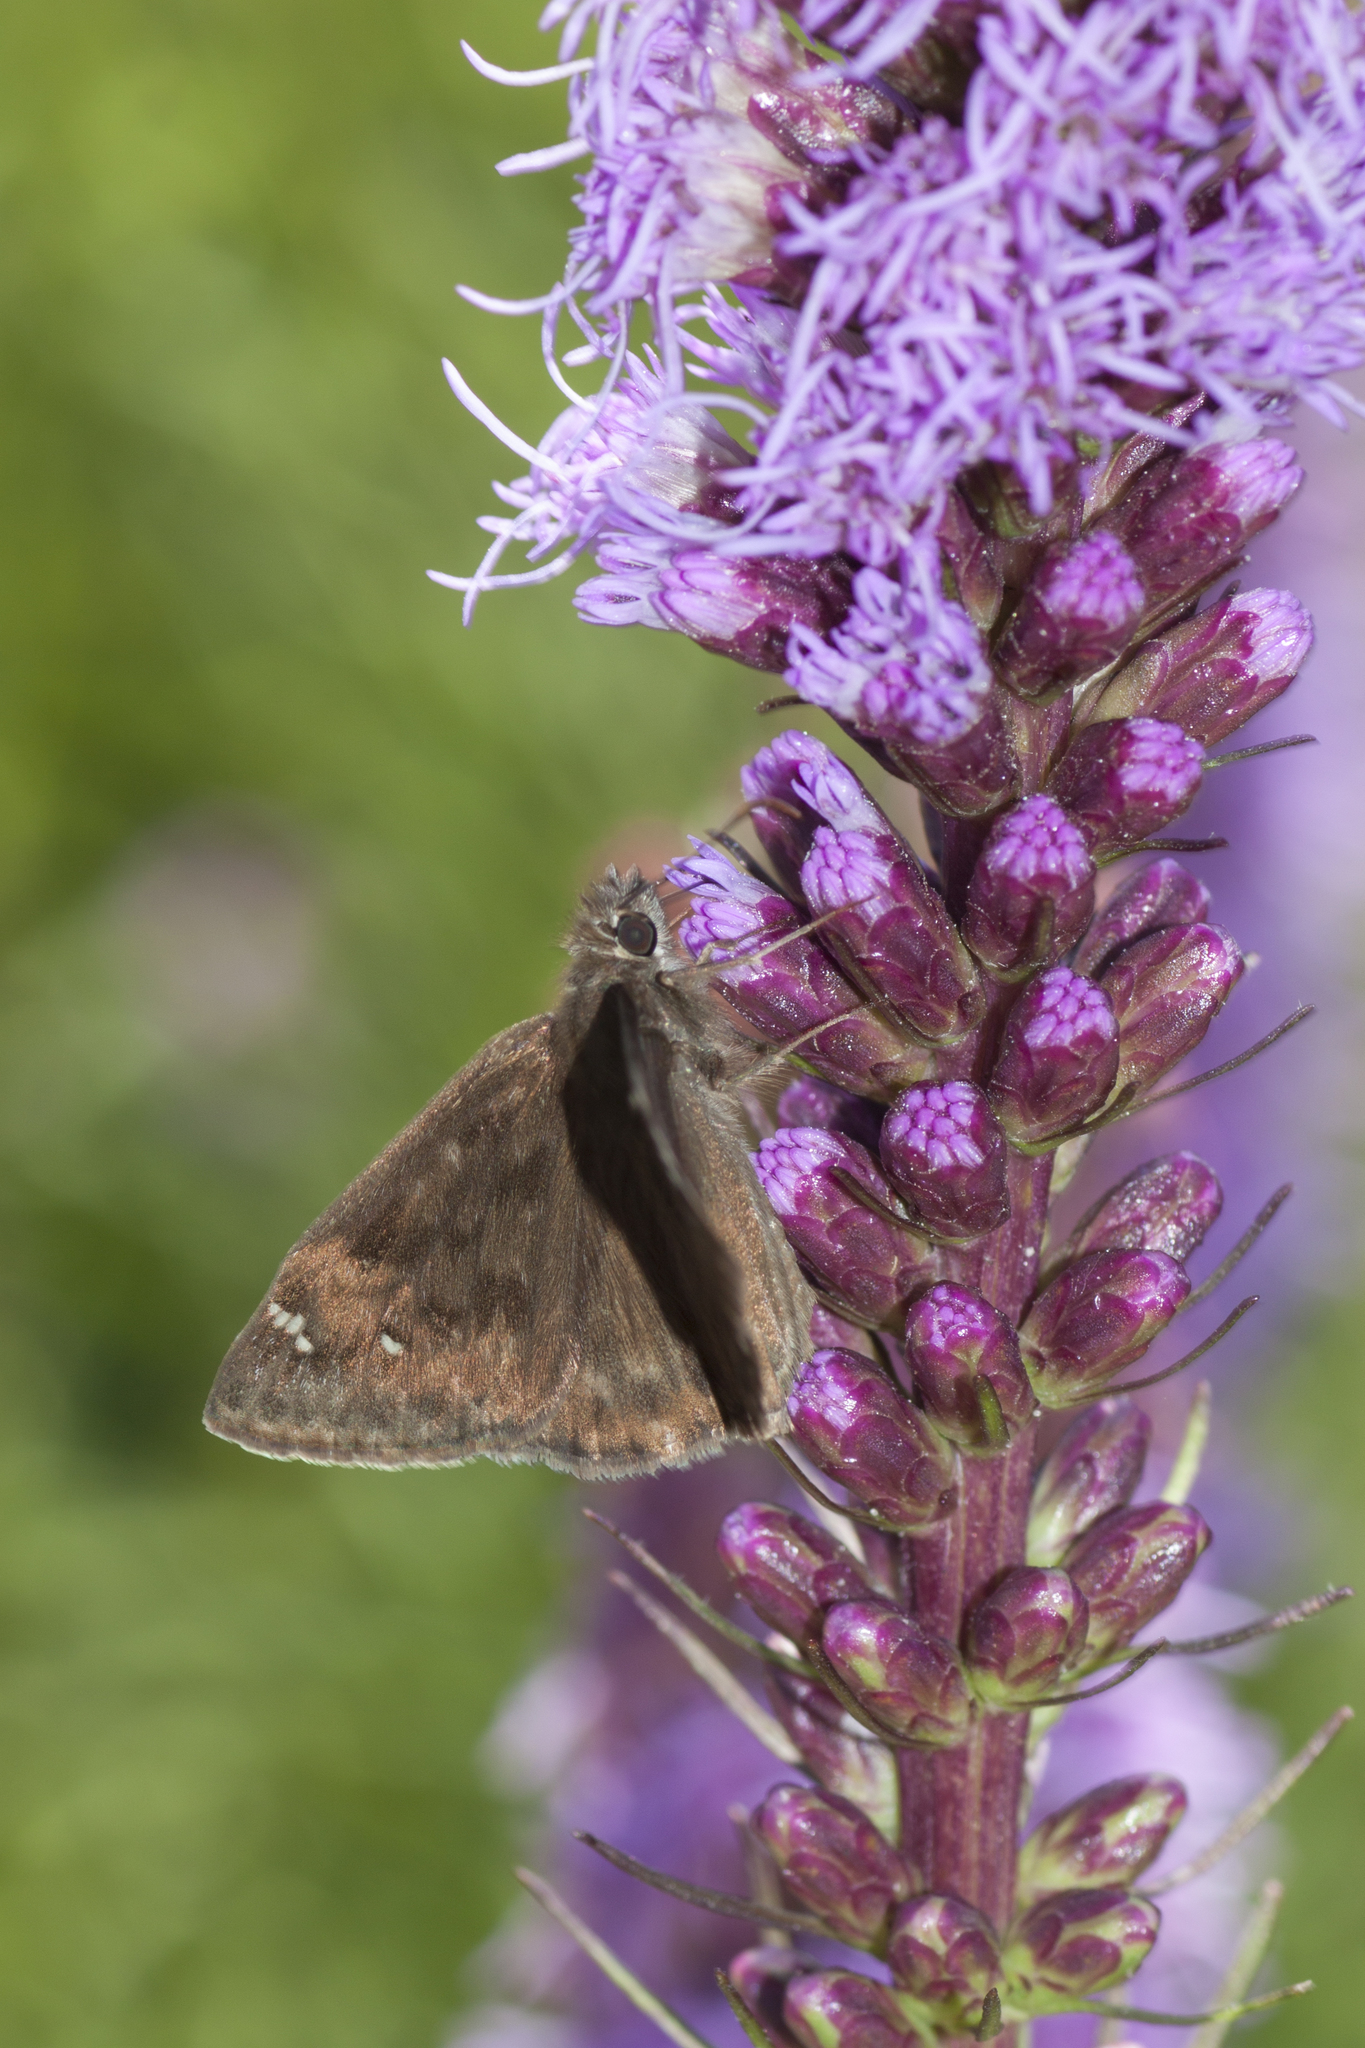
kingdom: Animalia
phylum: Arthropoda
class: Insecta
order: Lepidoptera
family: Hesperiidae
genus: Erynnis
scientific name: Erynnis horatius
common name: Horace's duskywing
